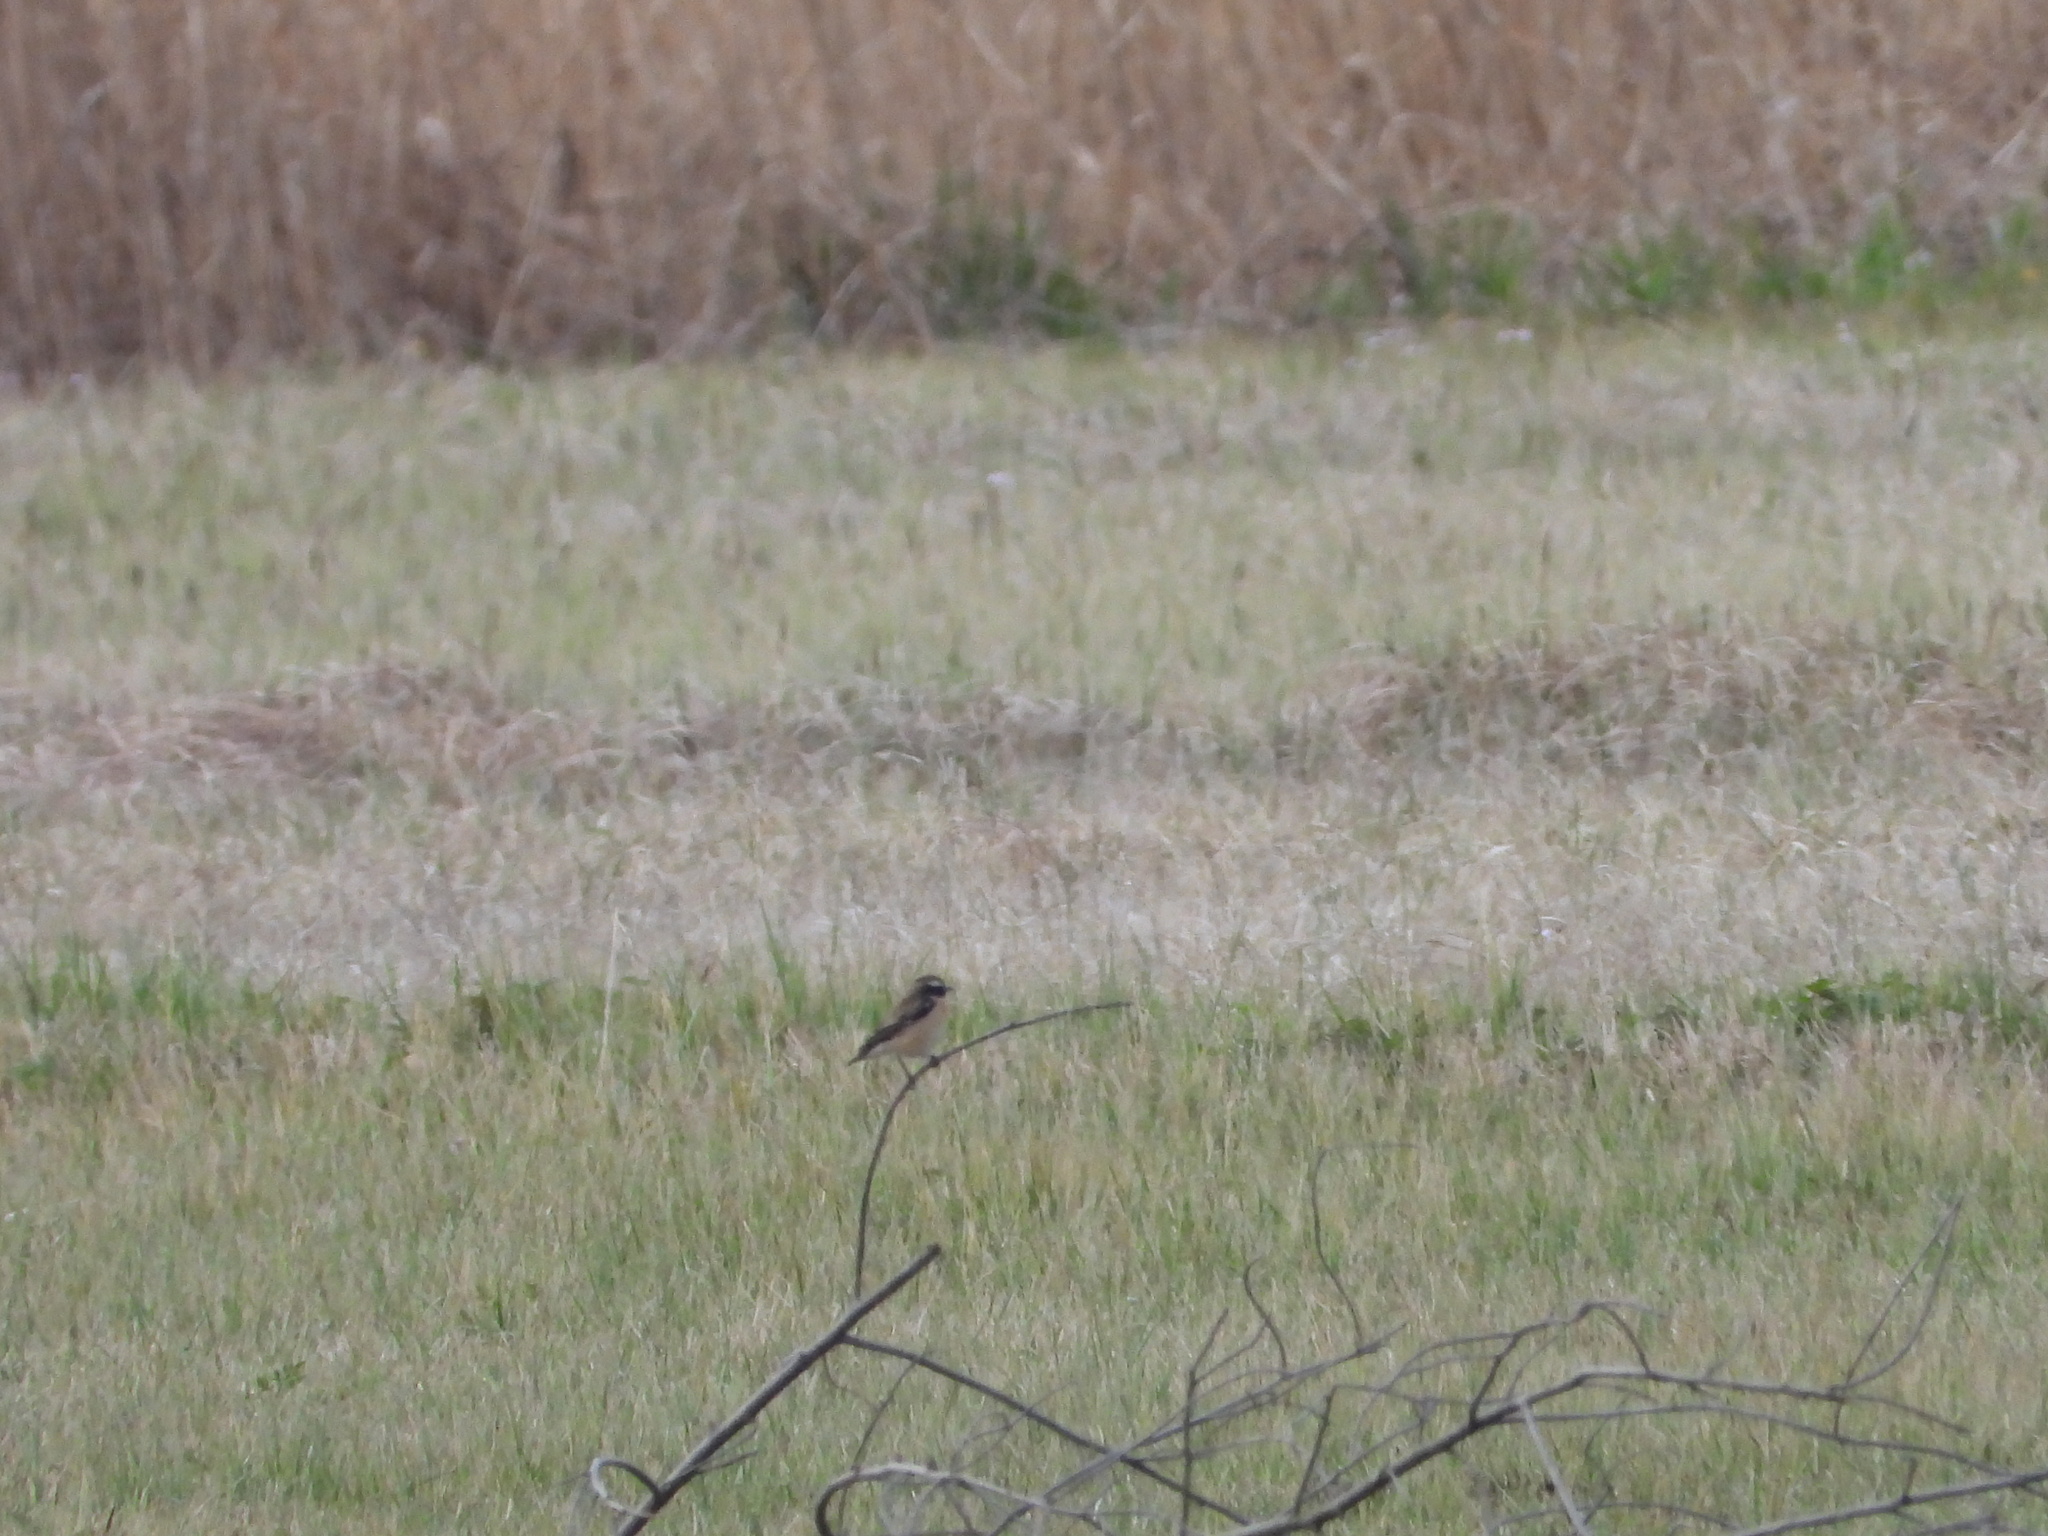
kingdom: Animalia
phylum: Chordata
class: Aves
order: Passeriformes
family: Muscicapidae
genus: Saxicola
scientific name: Saxicola rubetra
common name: Whinchat
